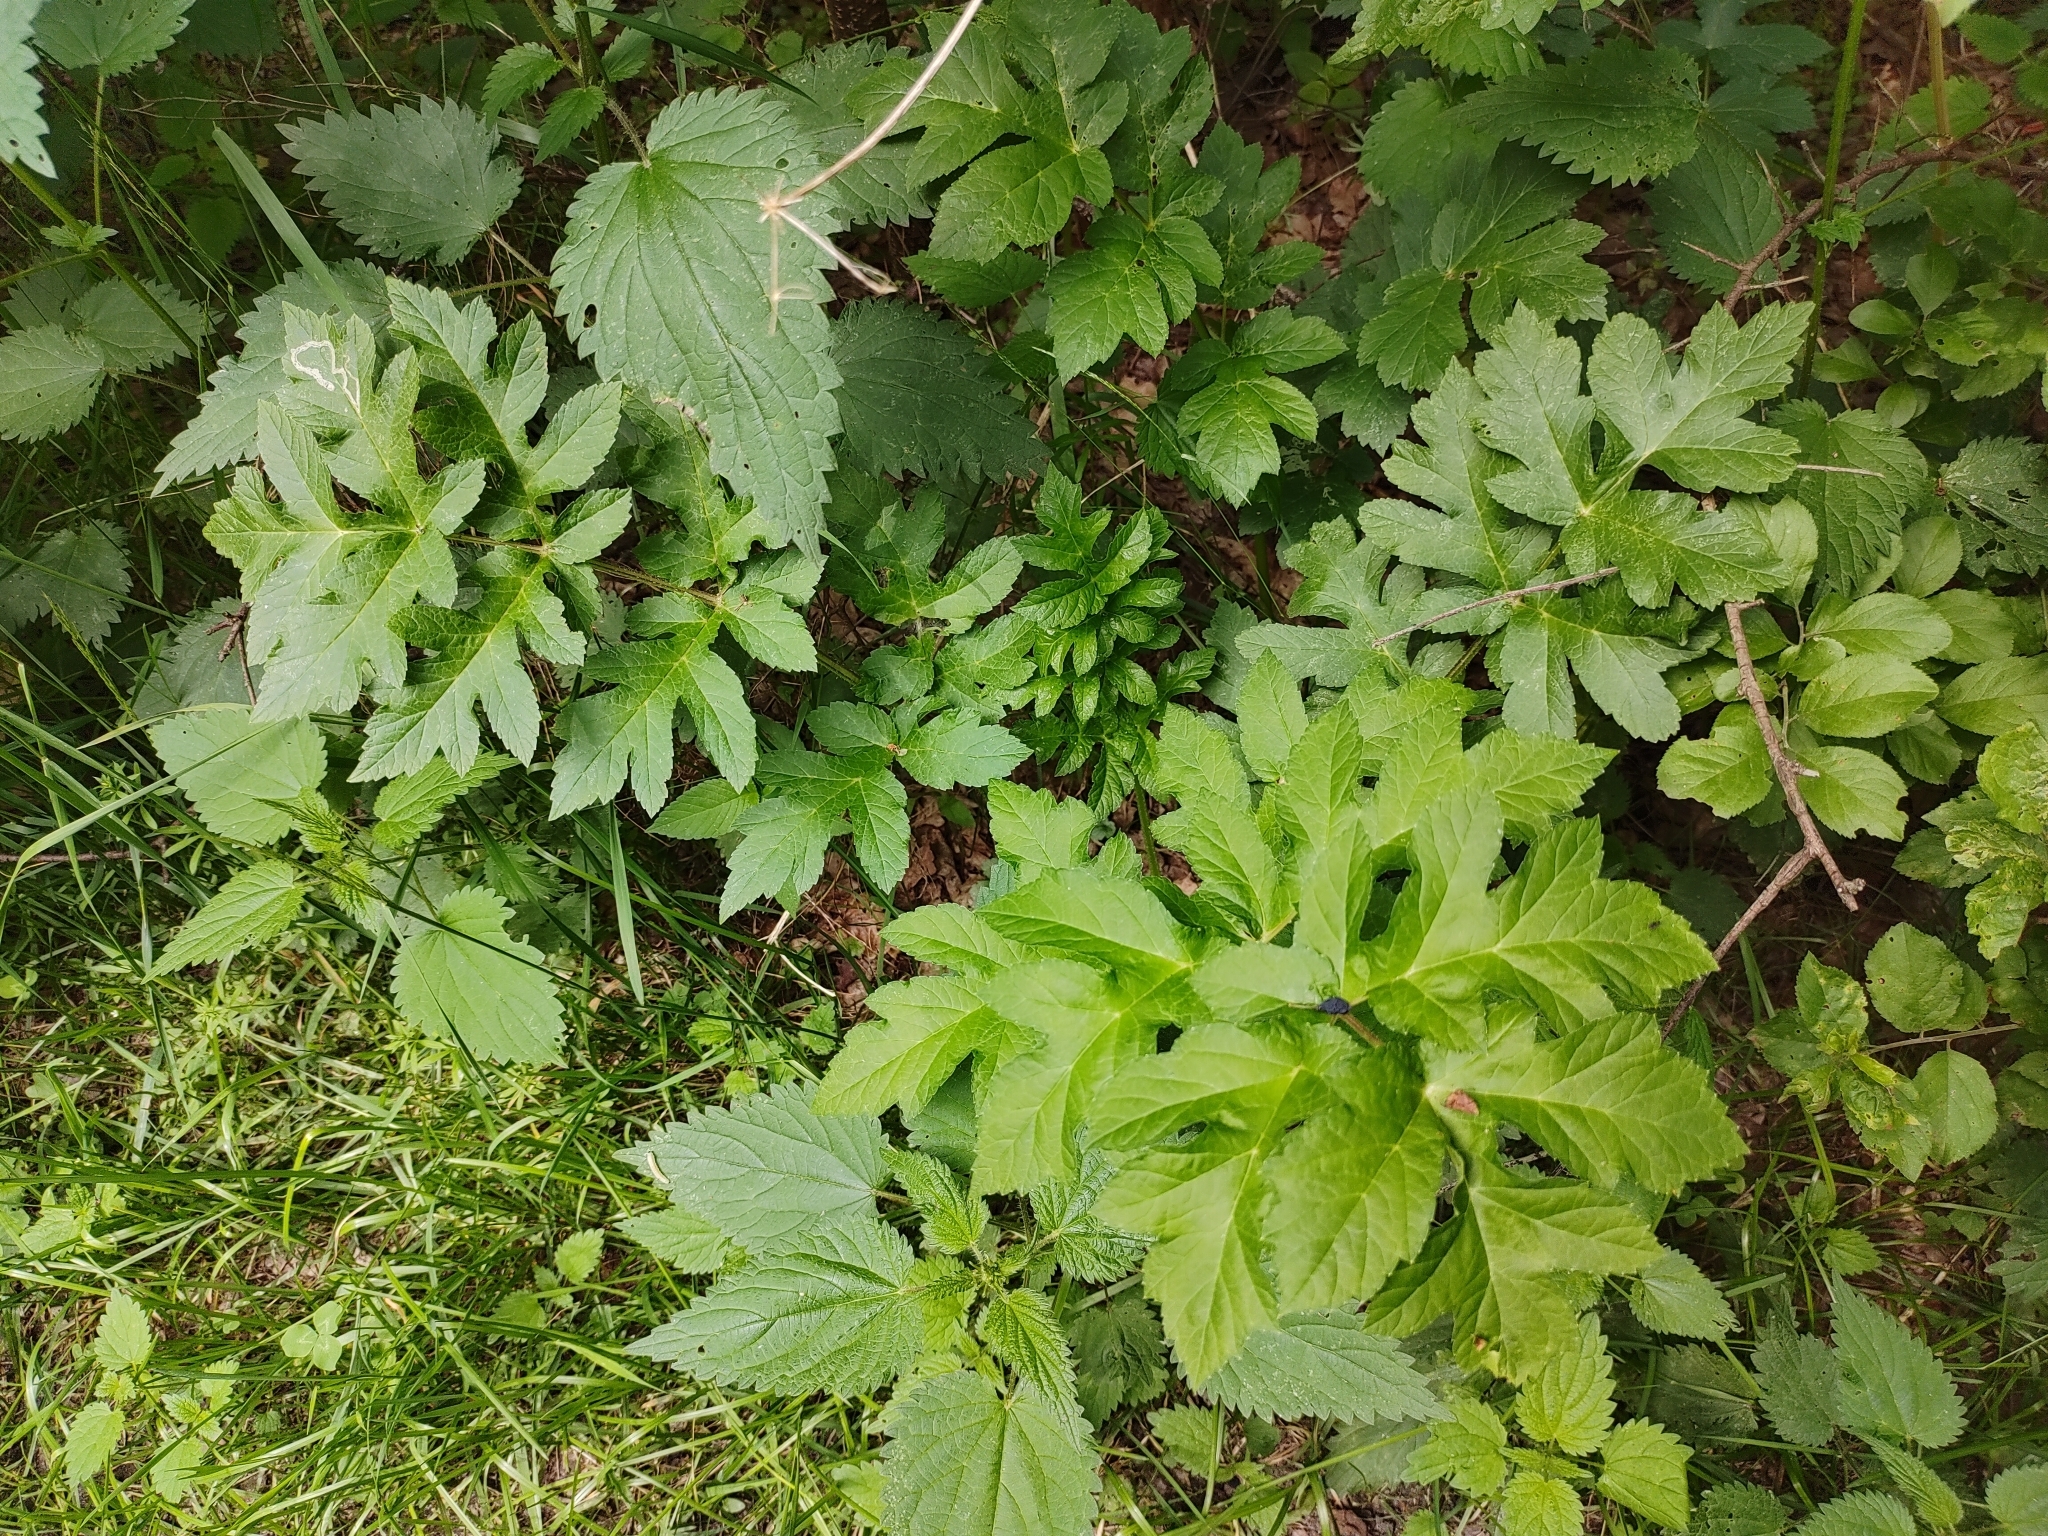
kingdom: Plantae
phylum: Tracheophyta
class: Magnoliopsida
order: Apiales
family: Apiaceae
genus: Heracleum
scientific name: Heracleum sphondylium
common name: Hogweed
